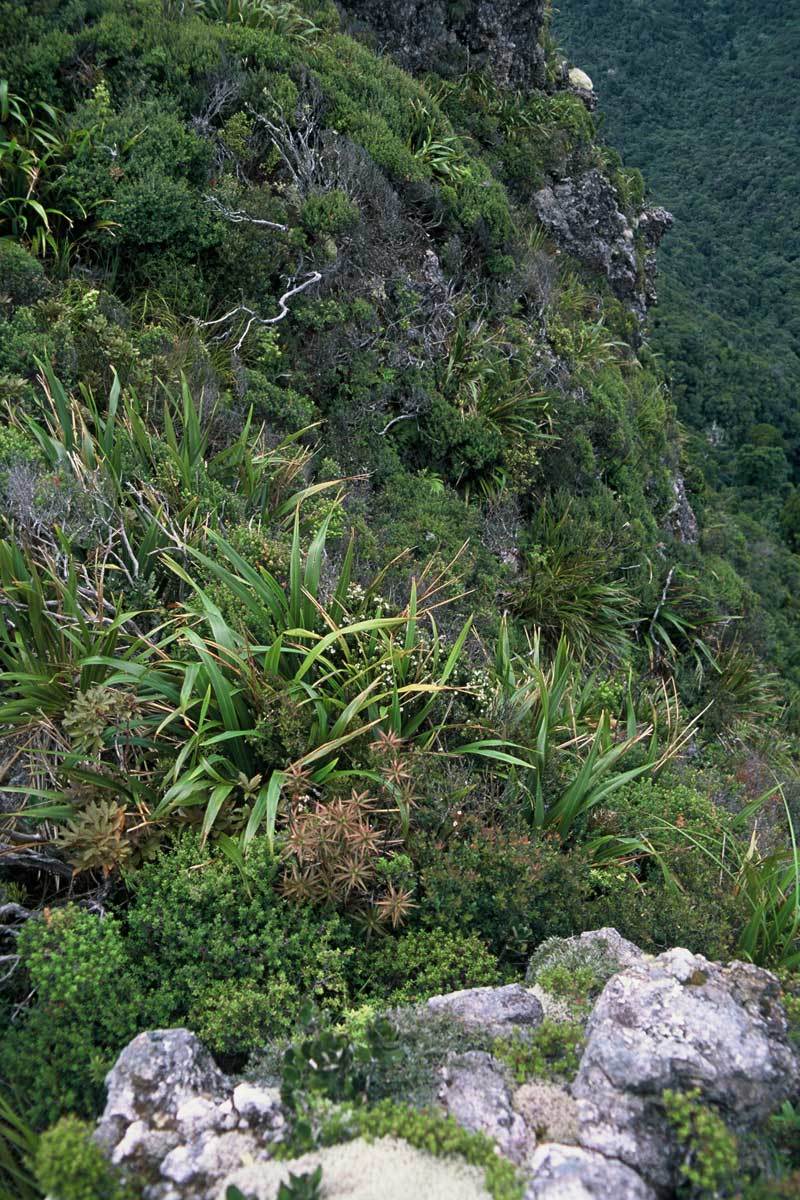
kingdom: Plantae
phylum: Tracheophyta
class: Magnoliopsida
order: Ericales
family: Ericaceae
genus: Epacris
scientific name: Epacris sinclairii
